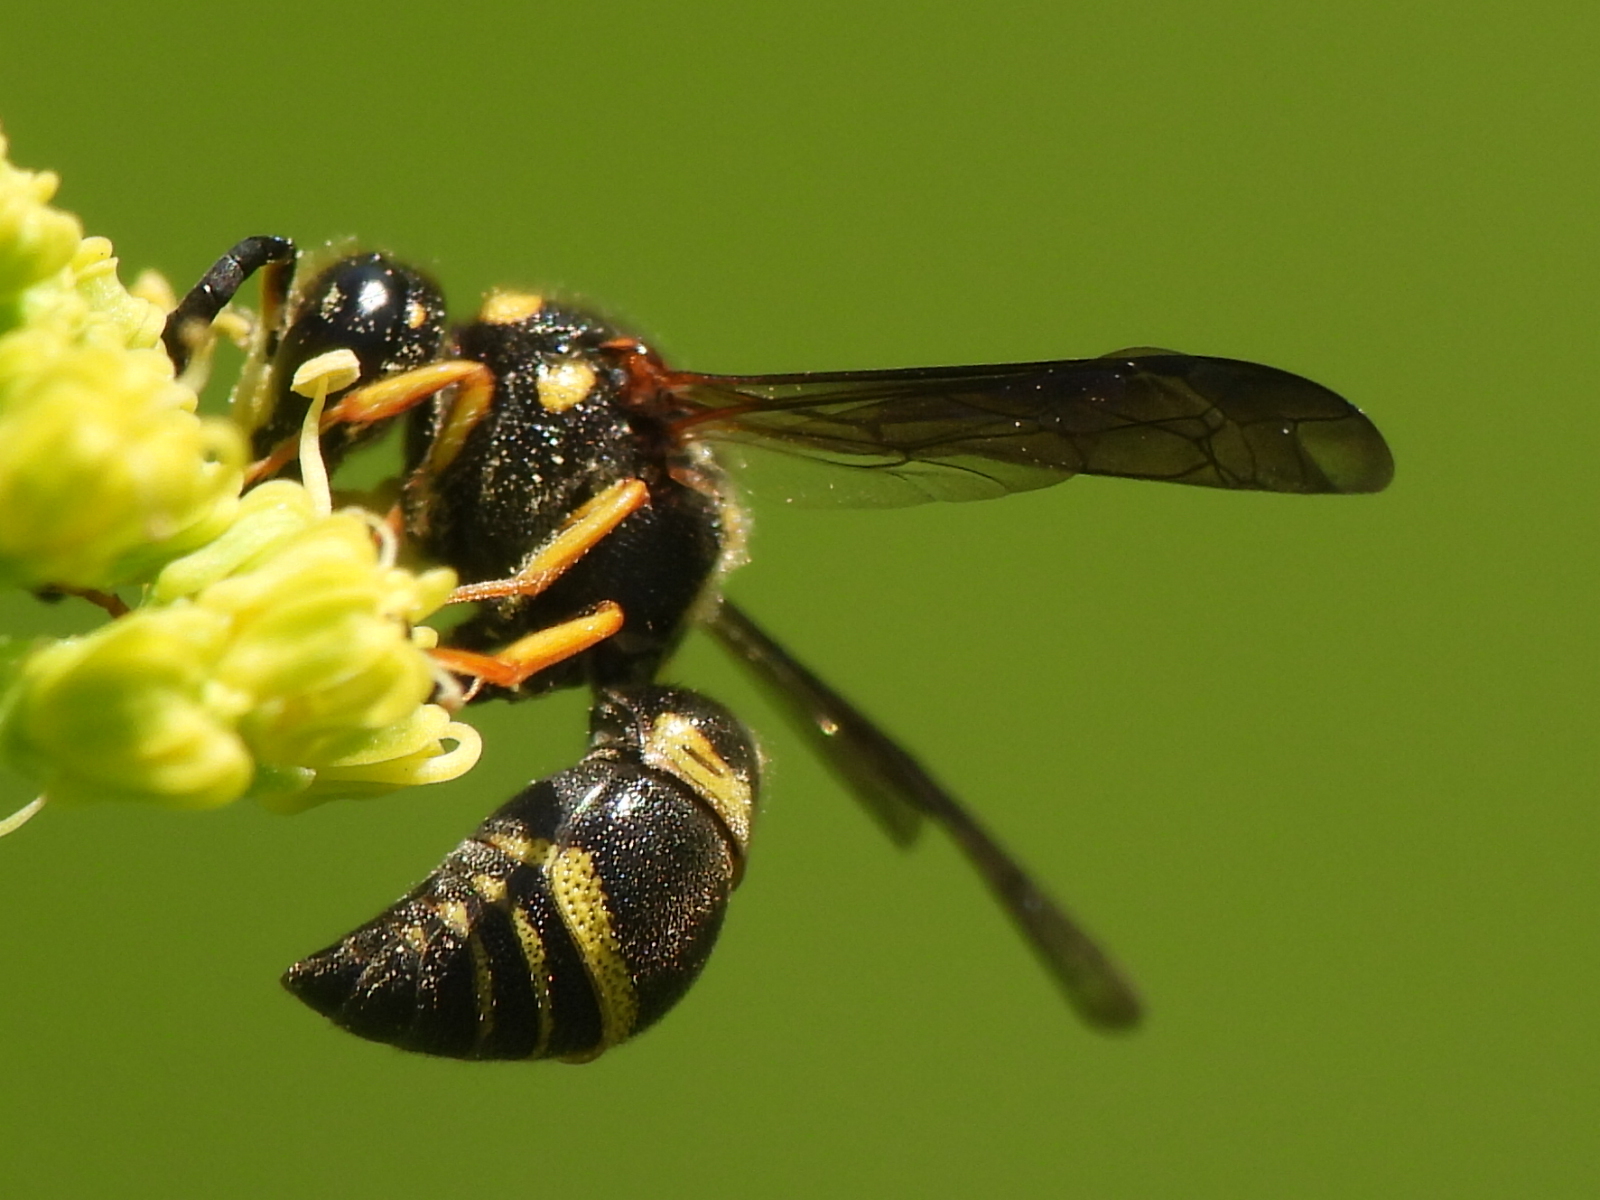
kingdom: Animalia
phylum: Arthropoda
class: Insecta
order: Hymenoptera
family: Eumenidae
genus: Euodynerus
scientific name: Euodynerus foraminatus
